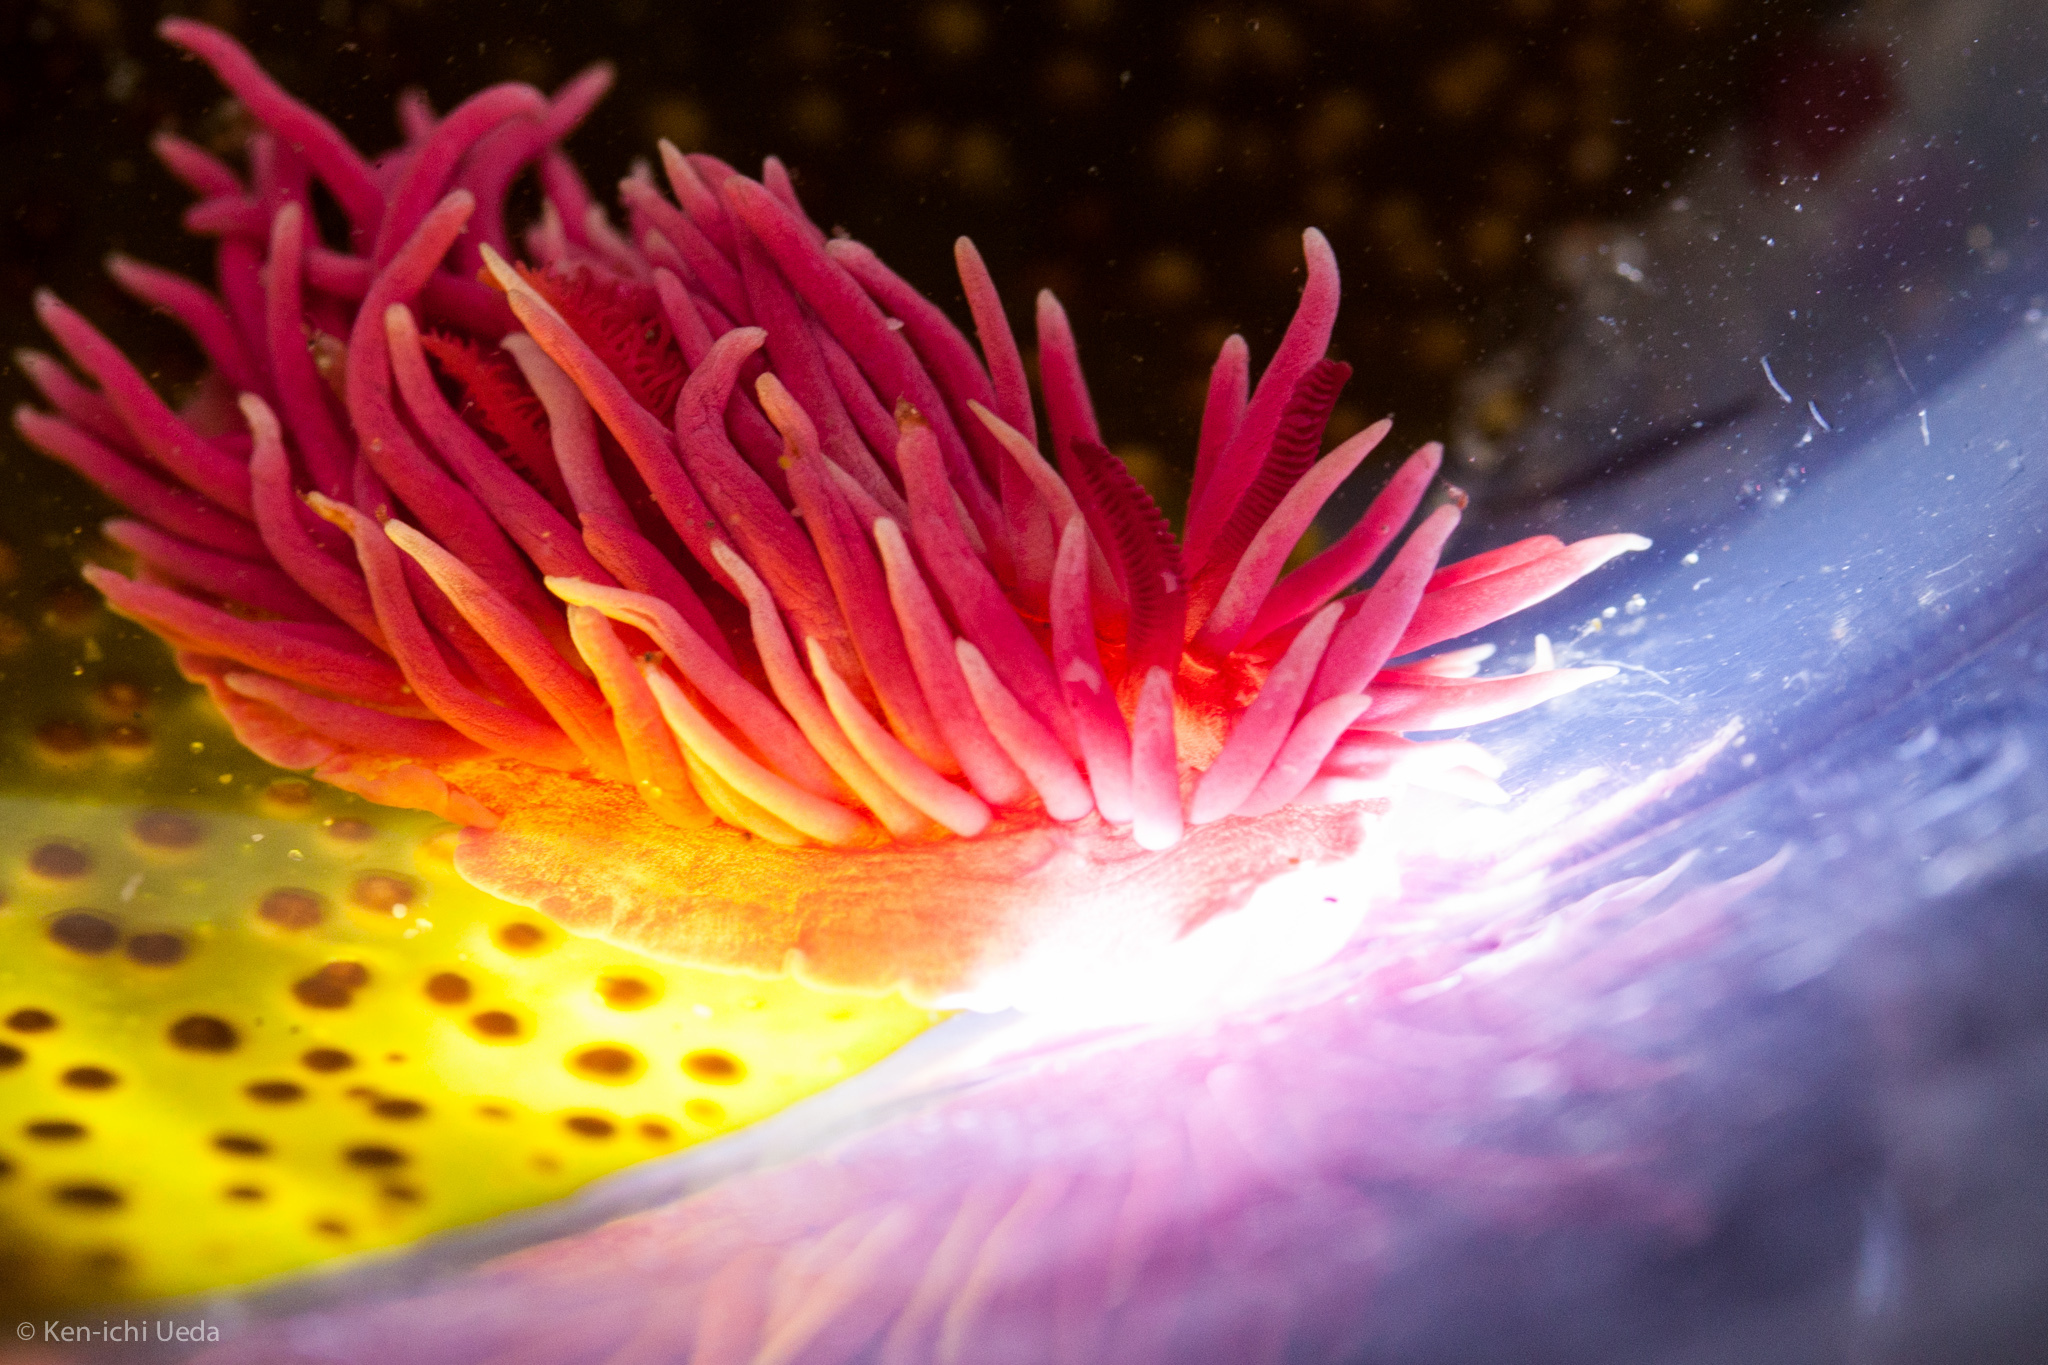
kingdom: Animalia
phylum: Mollusca
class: Gastropoda
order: Nudibranchia
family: Goniodorididae
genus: Okenia
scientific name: Okenia
